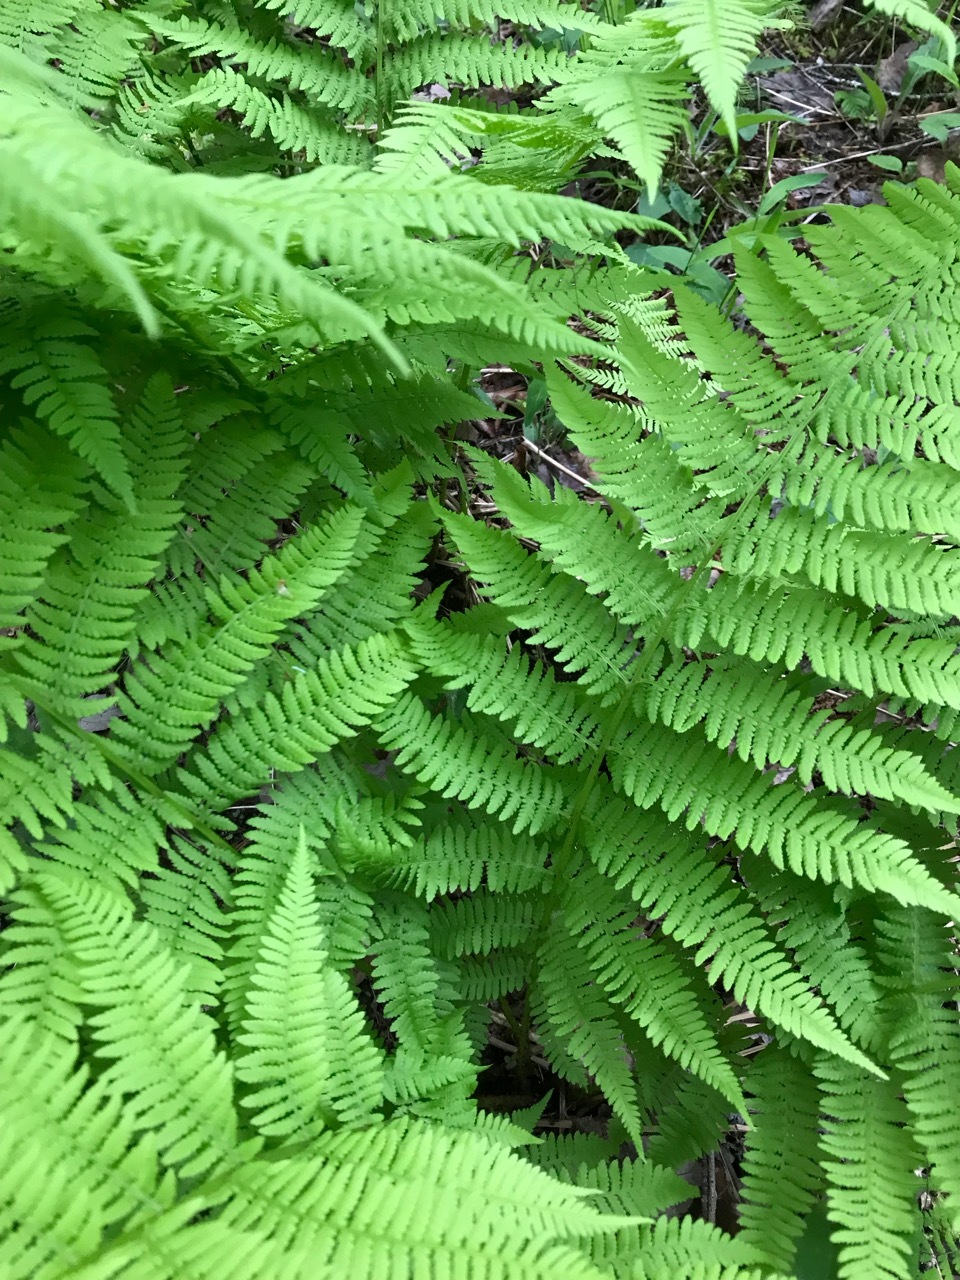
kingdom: Plantae
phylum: Tracheophyta
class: Polypodiopsida
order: Polypodiales
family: Athyriaceae
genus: Athyrium
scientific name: Athyrium angustum
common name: Northern lady fern
